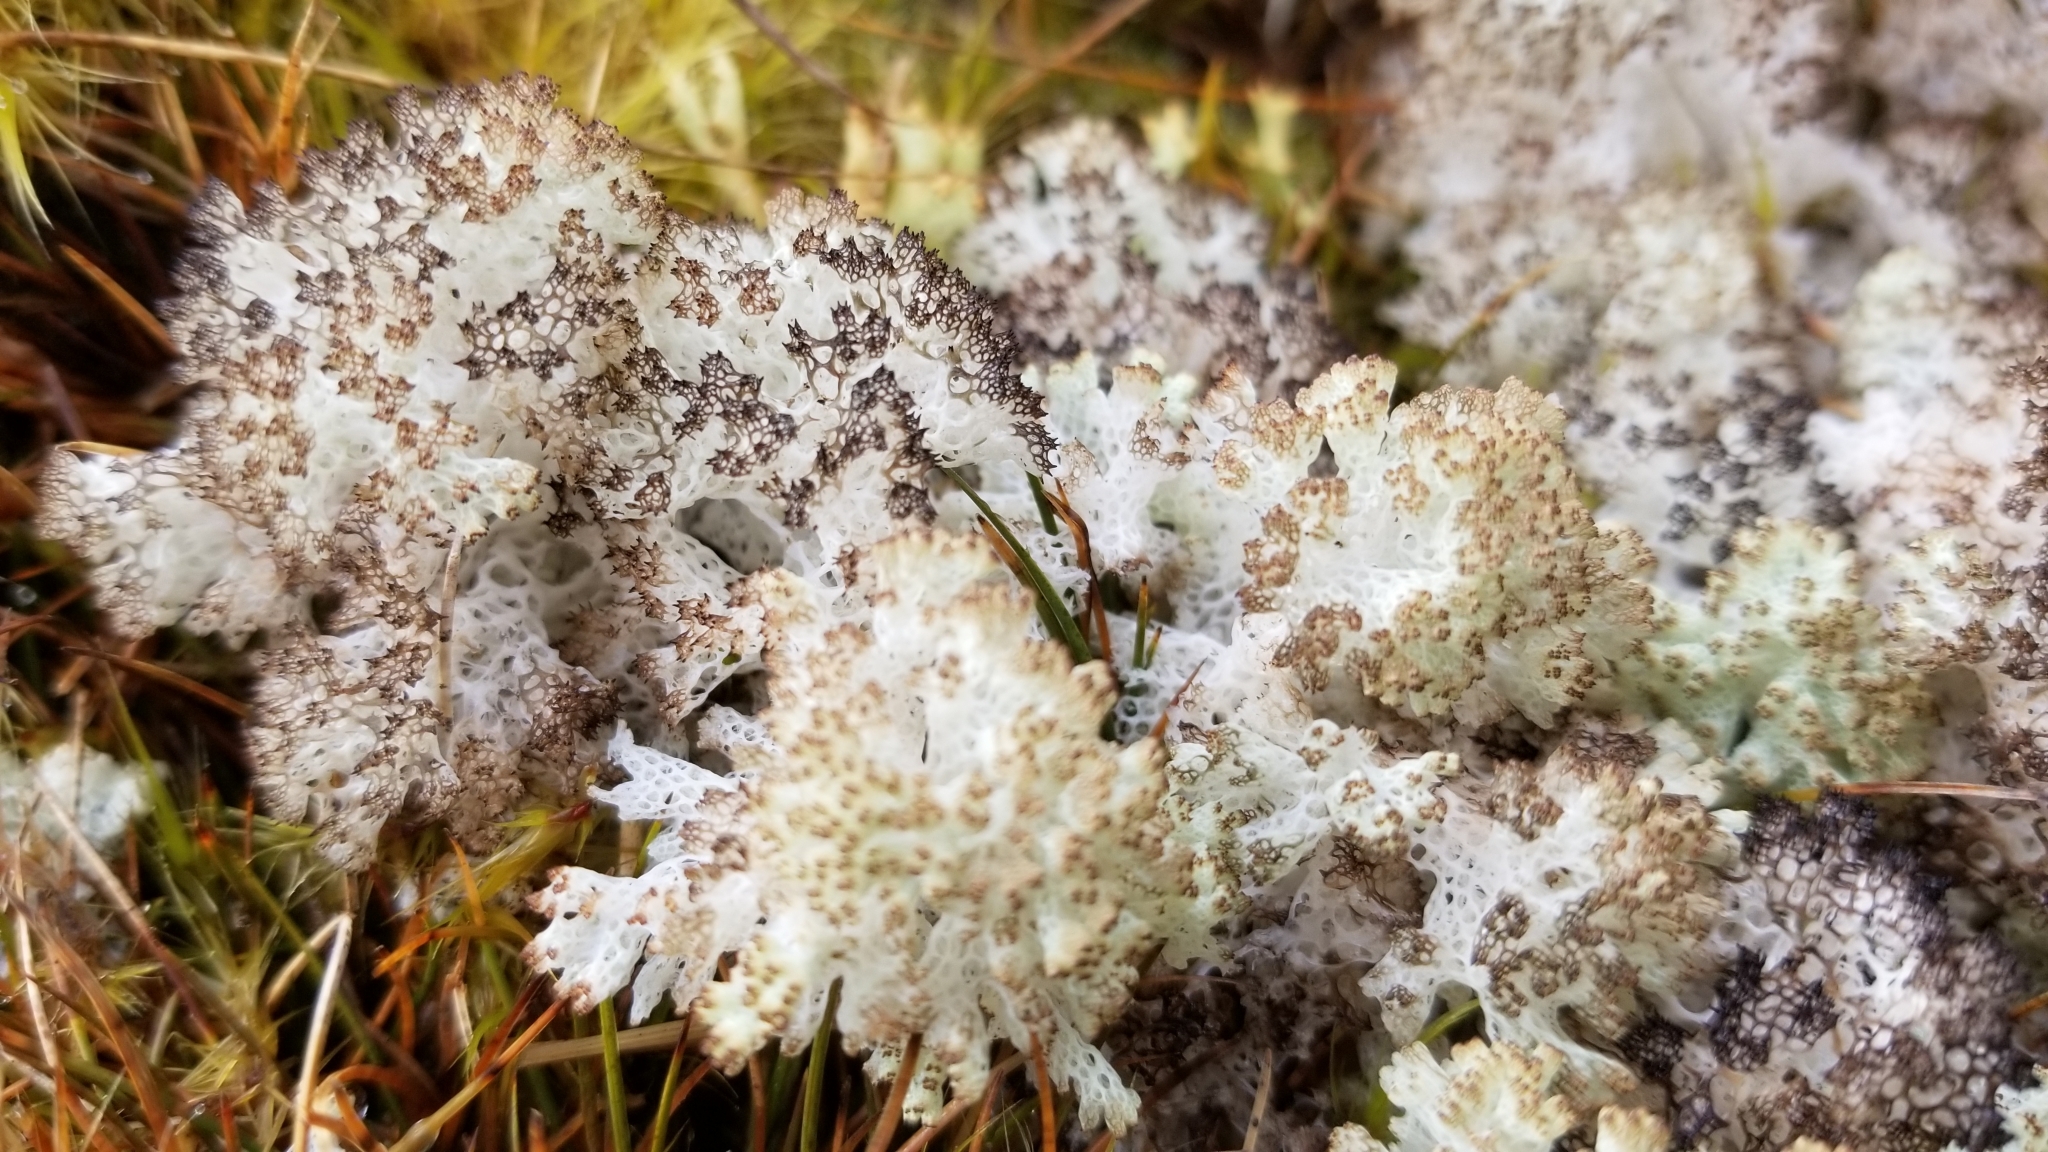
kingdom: Fungi
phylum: Ascomycota
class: Lecanoromycetes
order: Lecanorales
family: Cladoniaceae
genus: Pulchrocladia
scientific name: Pulchrocladia retipora
